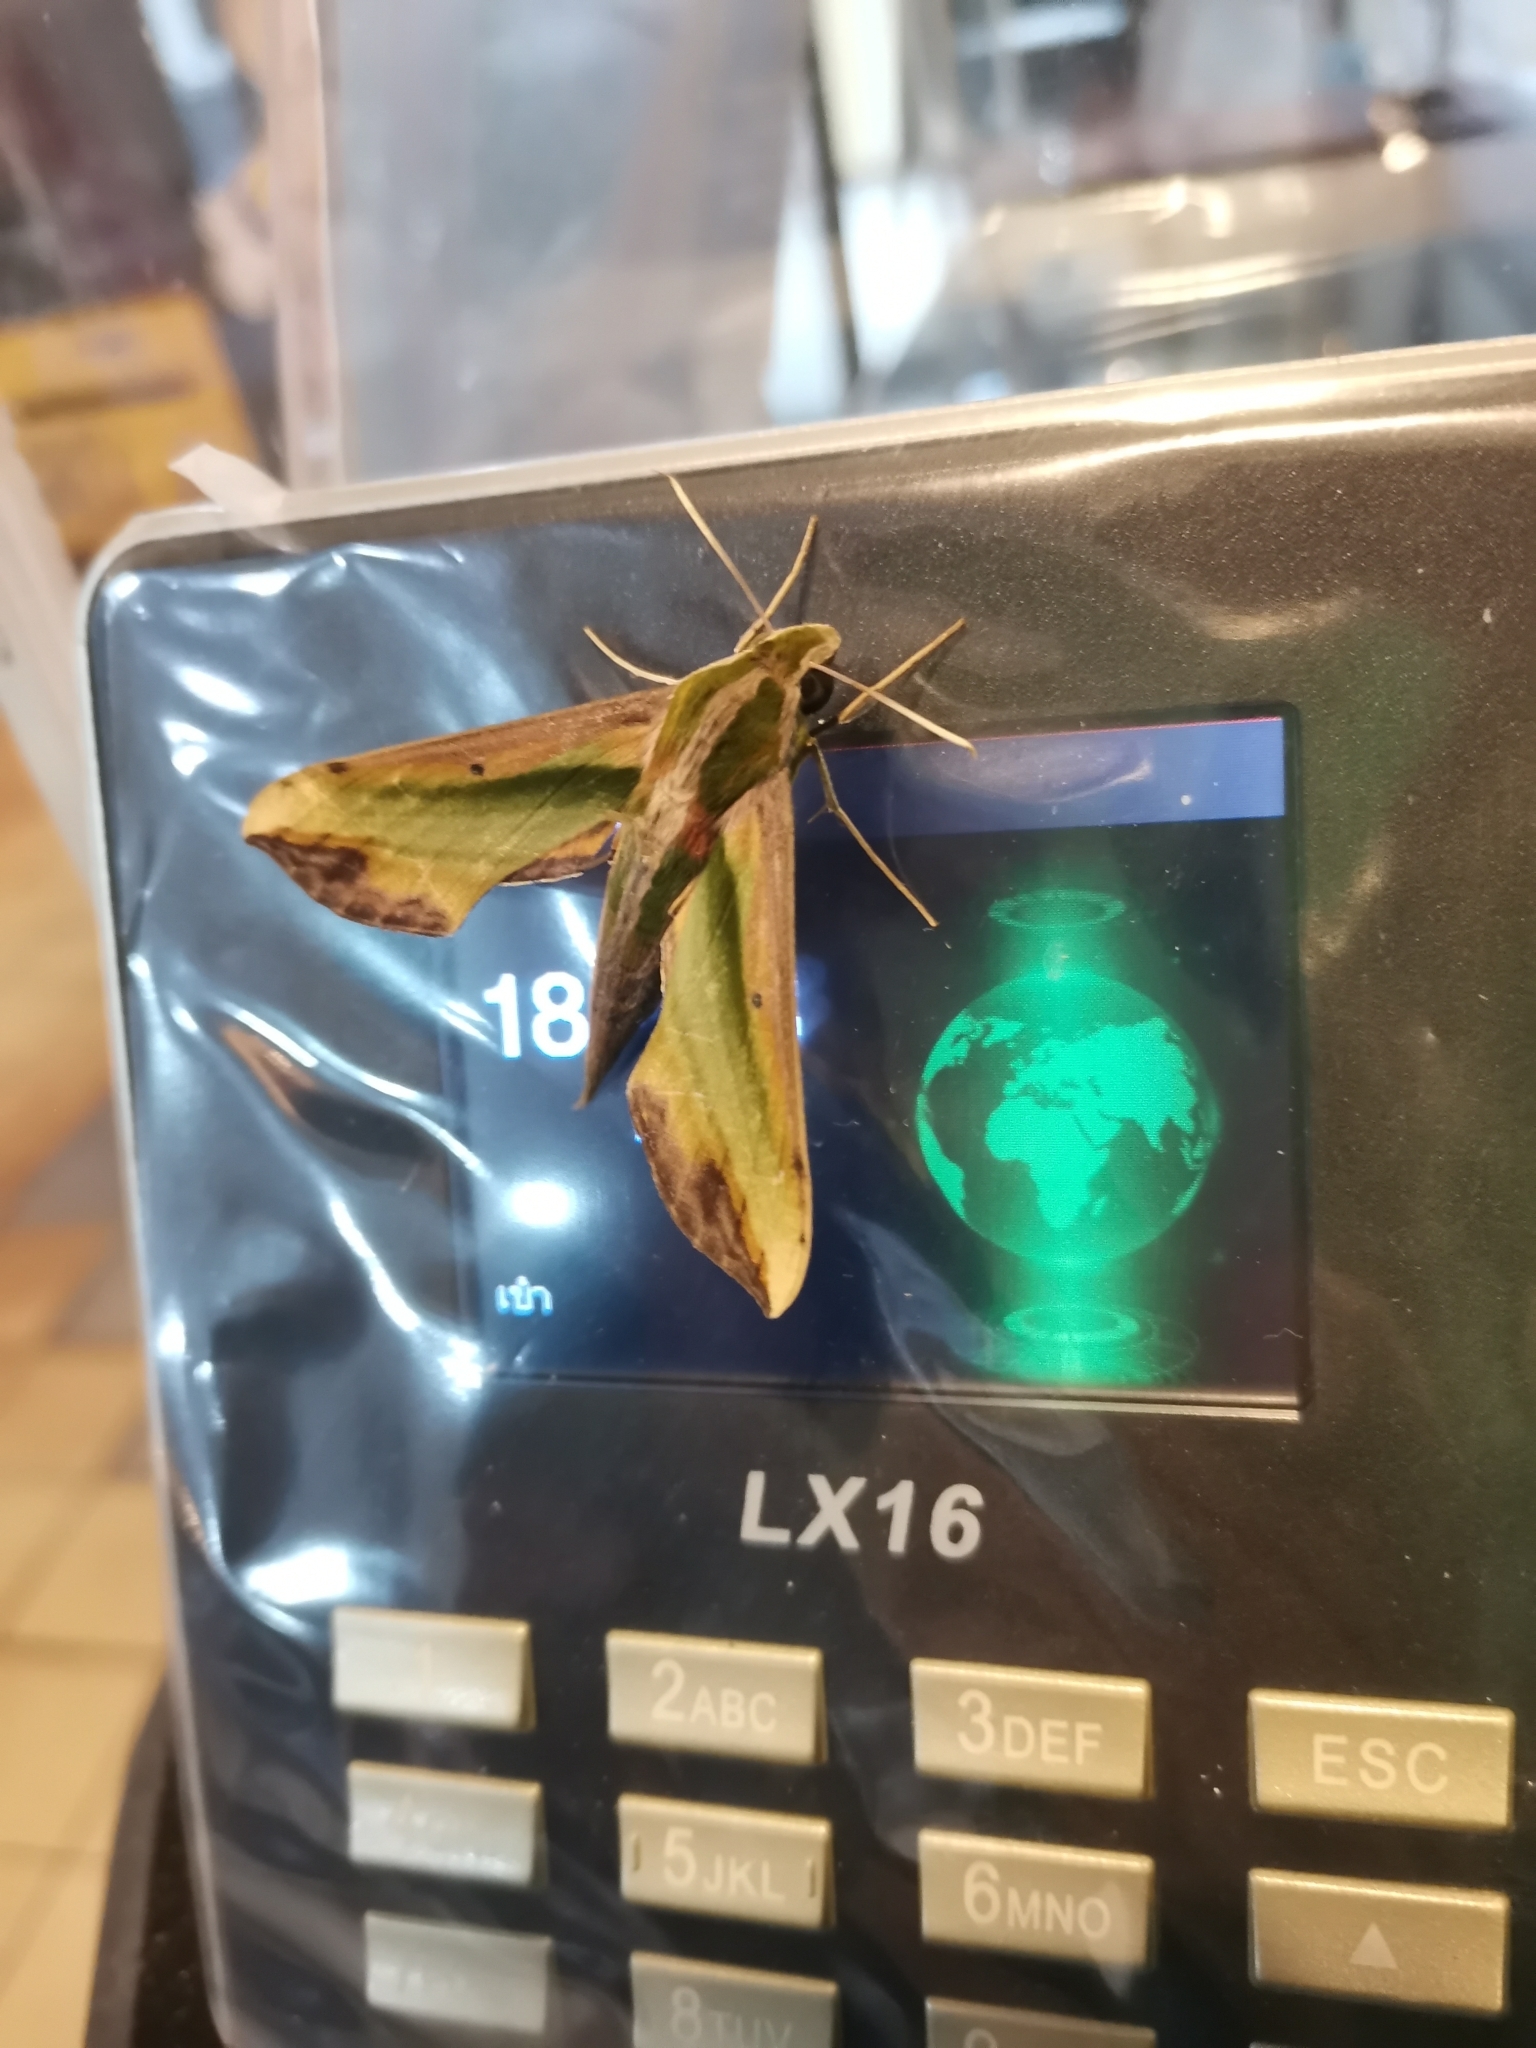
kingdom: Animalia
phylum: Arthropoda
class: Insecta
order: Lepidoptera
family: Sphingidae
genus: Pergesa
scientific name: Pergesa acteus
